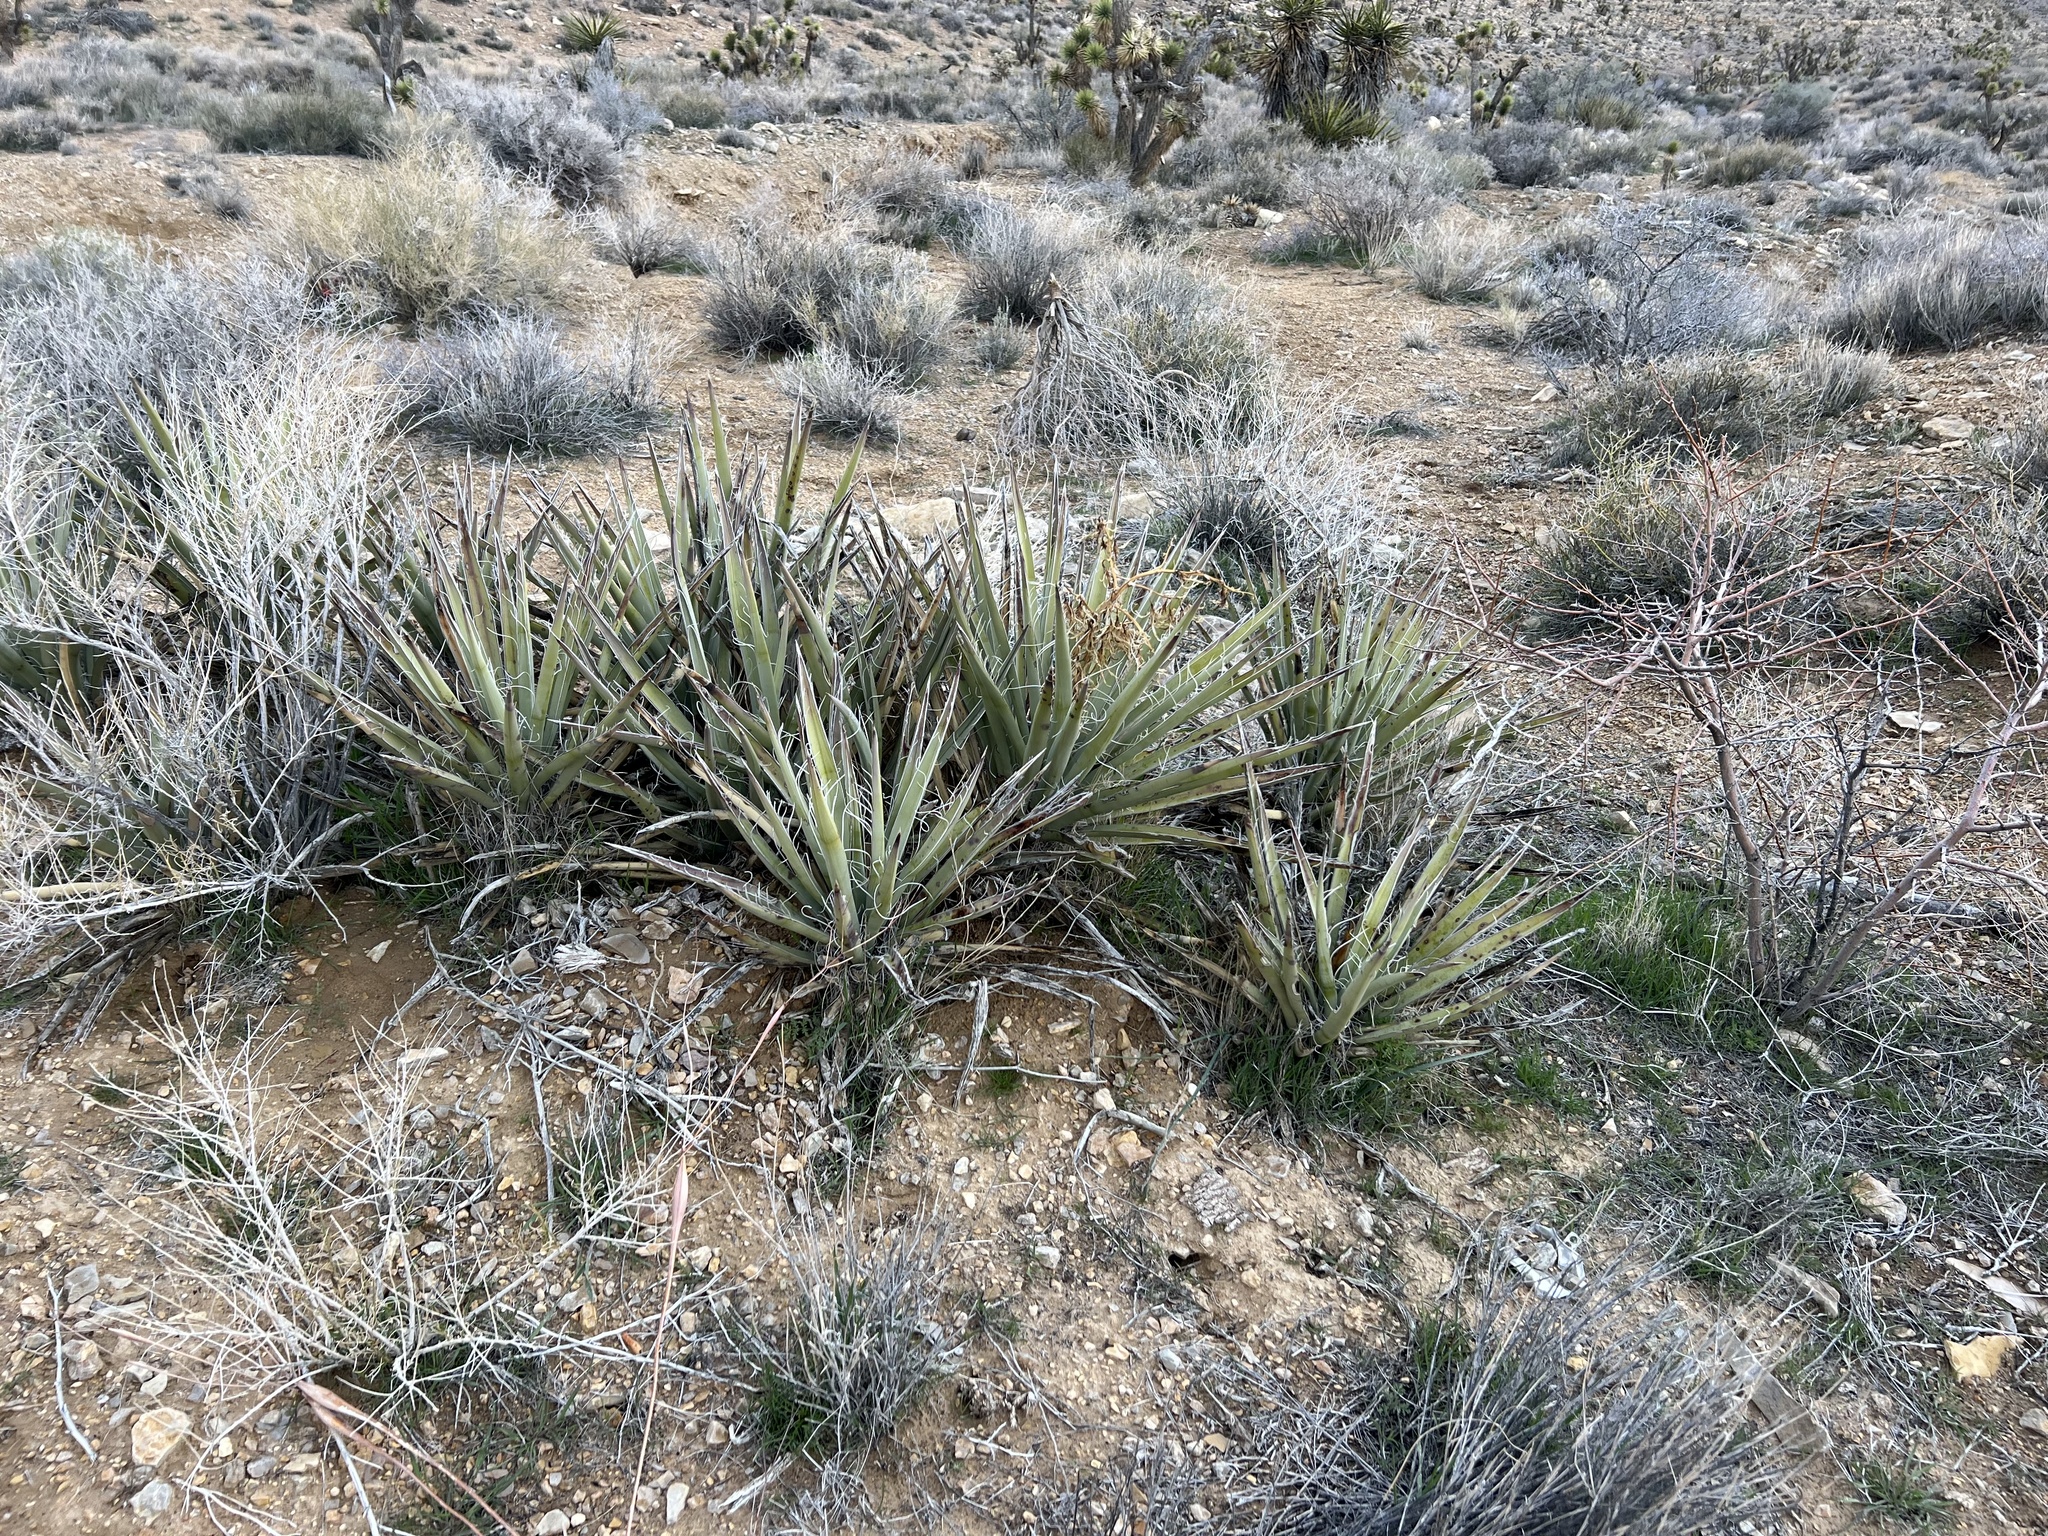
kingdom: Plantae
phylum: Tracheophyta
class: Liliopsida
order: Asparagales
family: Asparagaceae
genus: Yucca
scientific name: Yucca baccata
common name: Banana yucca
